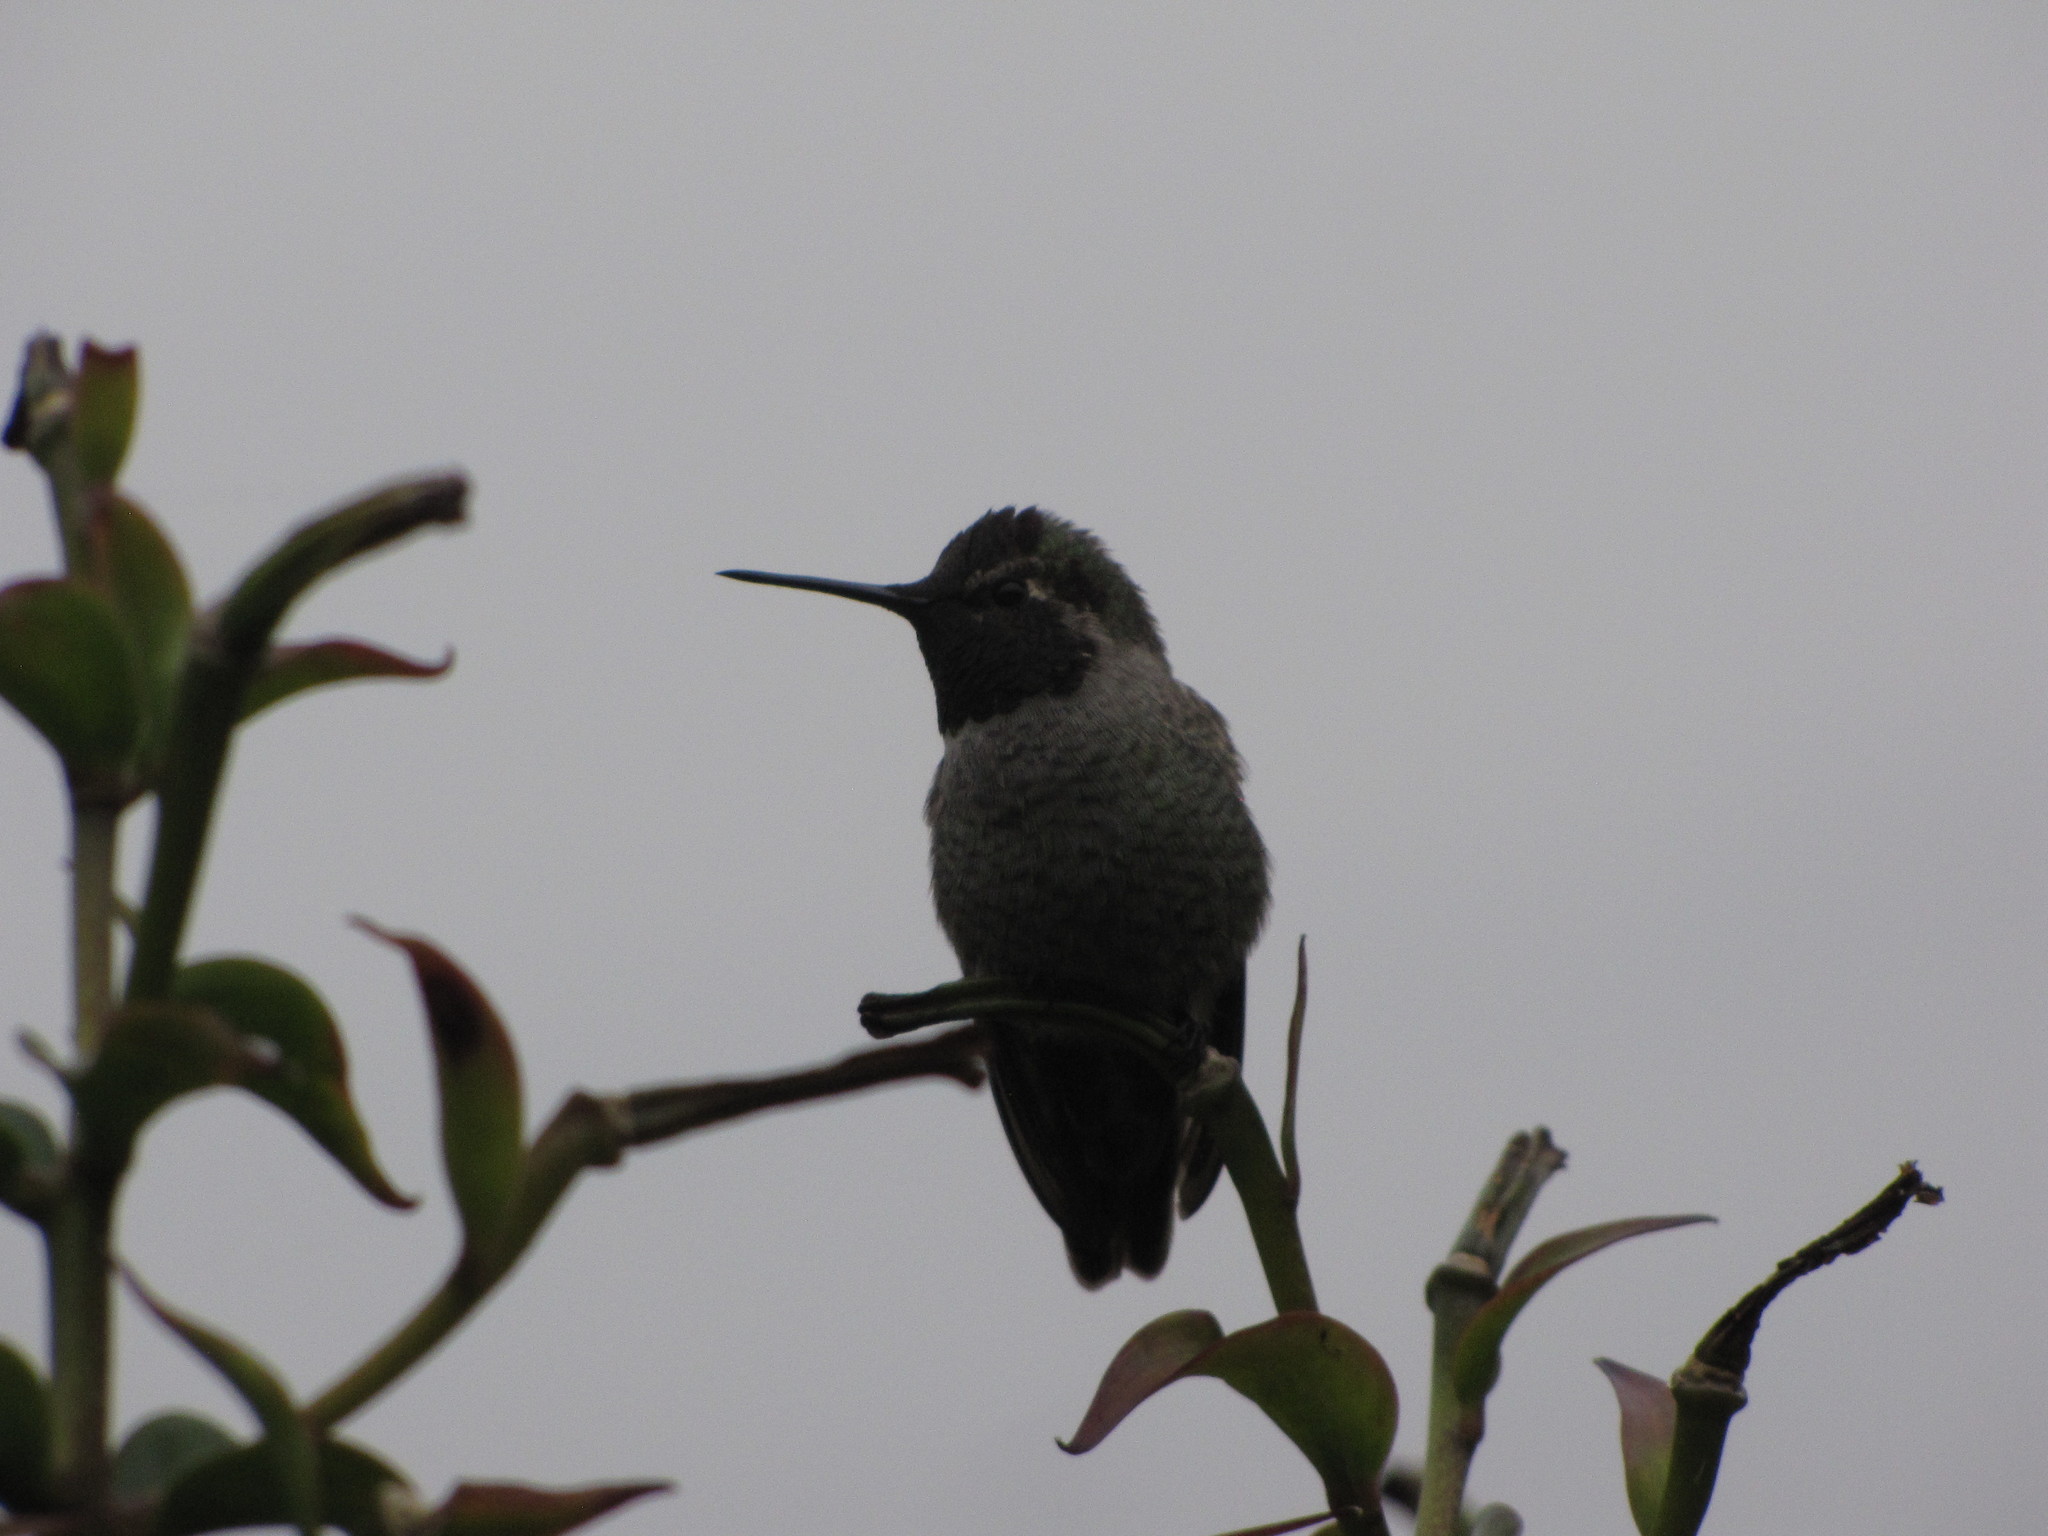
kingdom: Animalia
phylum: Chordata
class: Aves
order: Apodiformes
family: Trochilidae
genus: Calypte
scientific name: Calypte anna
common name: Anna's hummingbird
